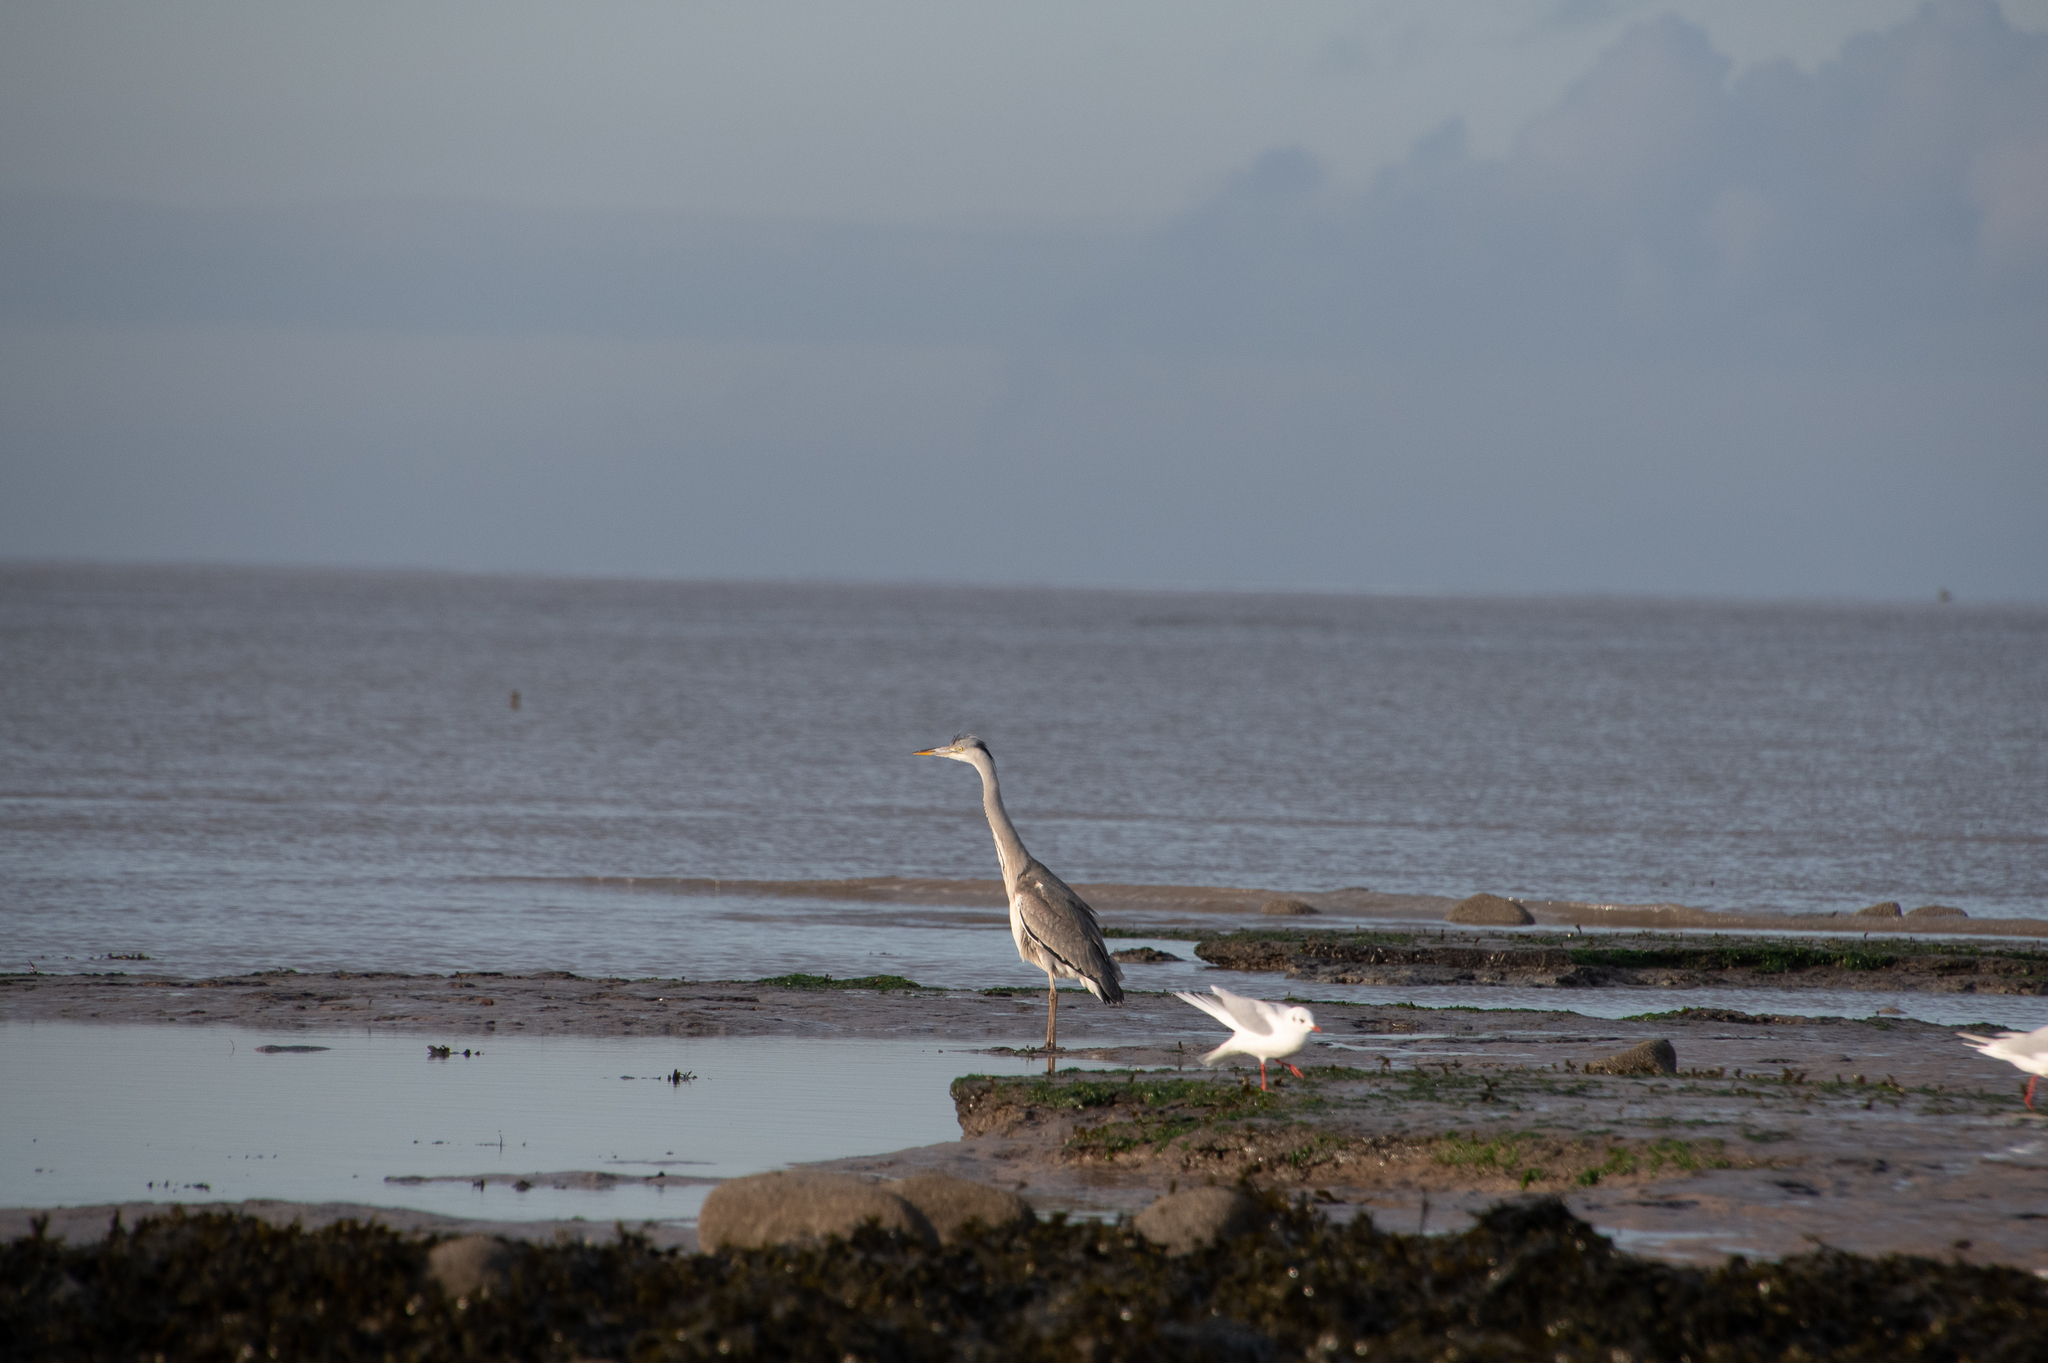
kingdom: Animalia
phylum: Chordata
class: Aves
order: Pelecaniformes
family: Ardeidae
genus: Ardea
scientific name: Ardea cinerea
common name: Grey heron
